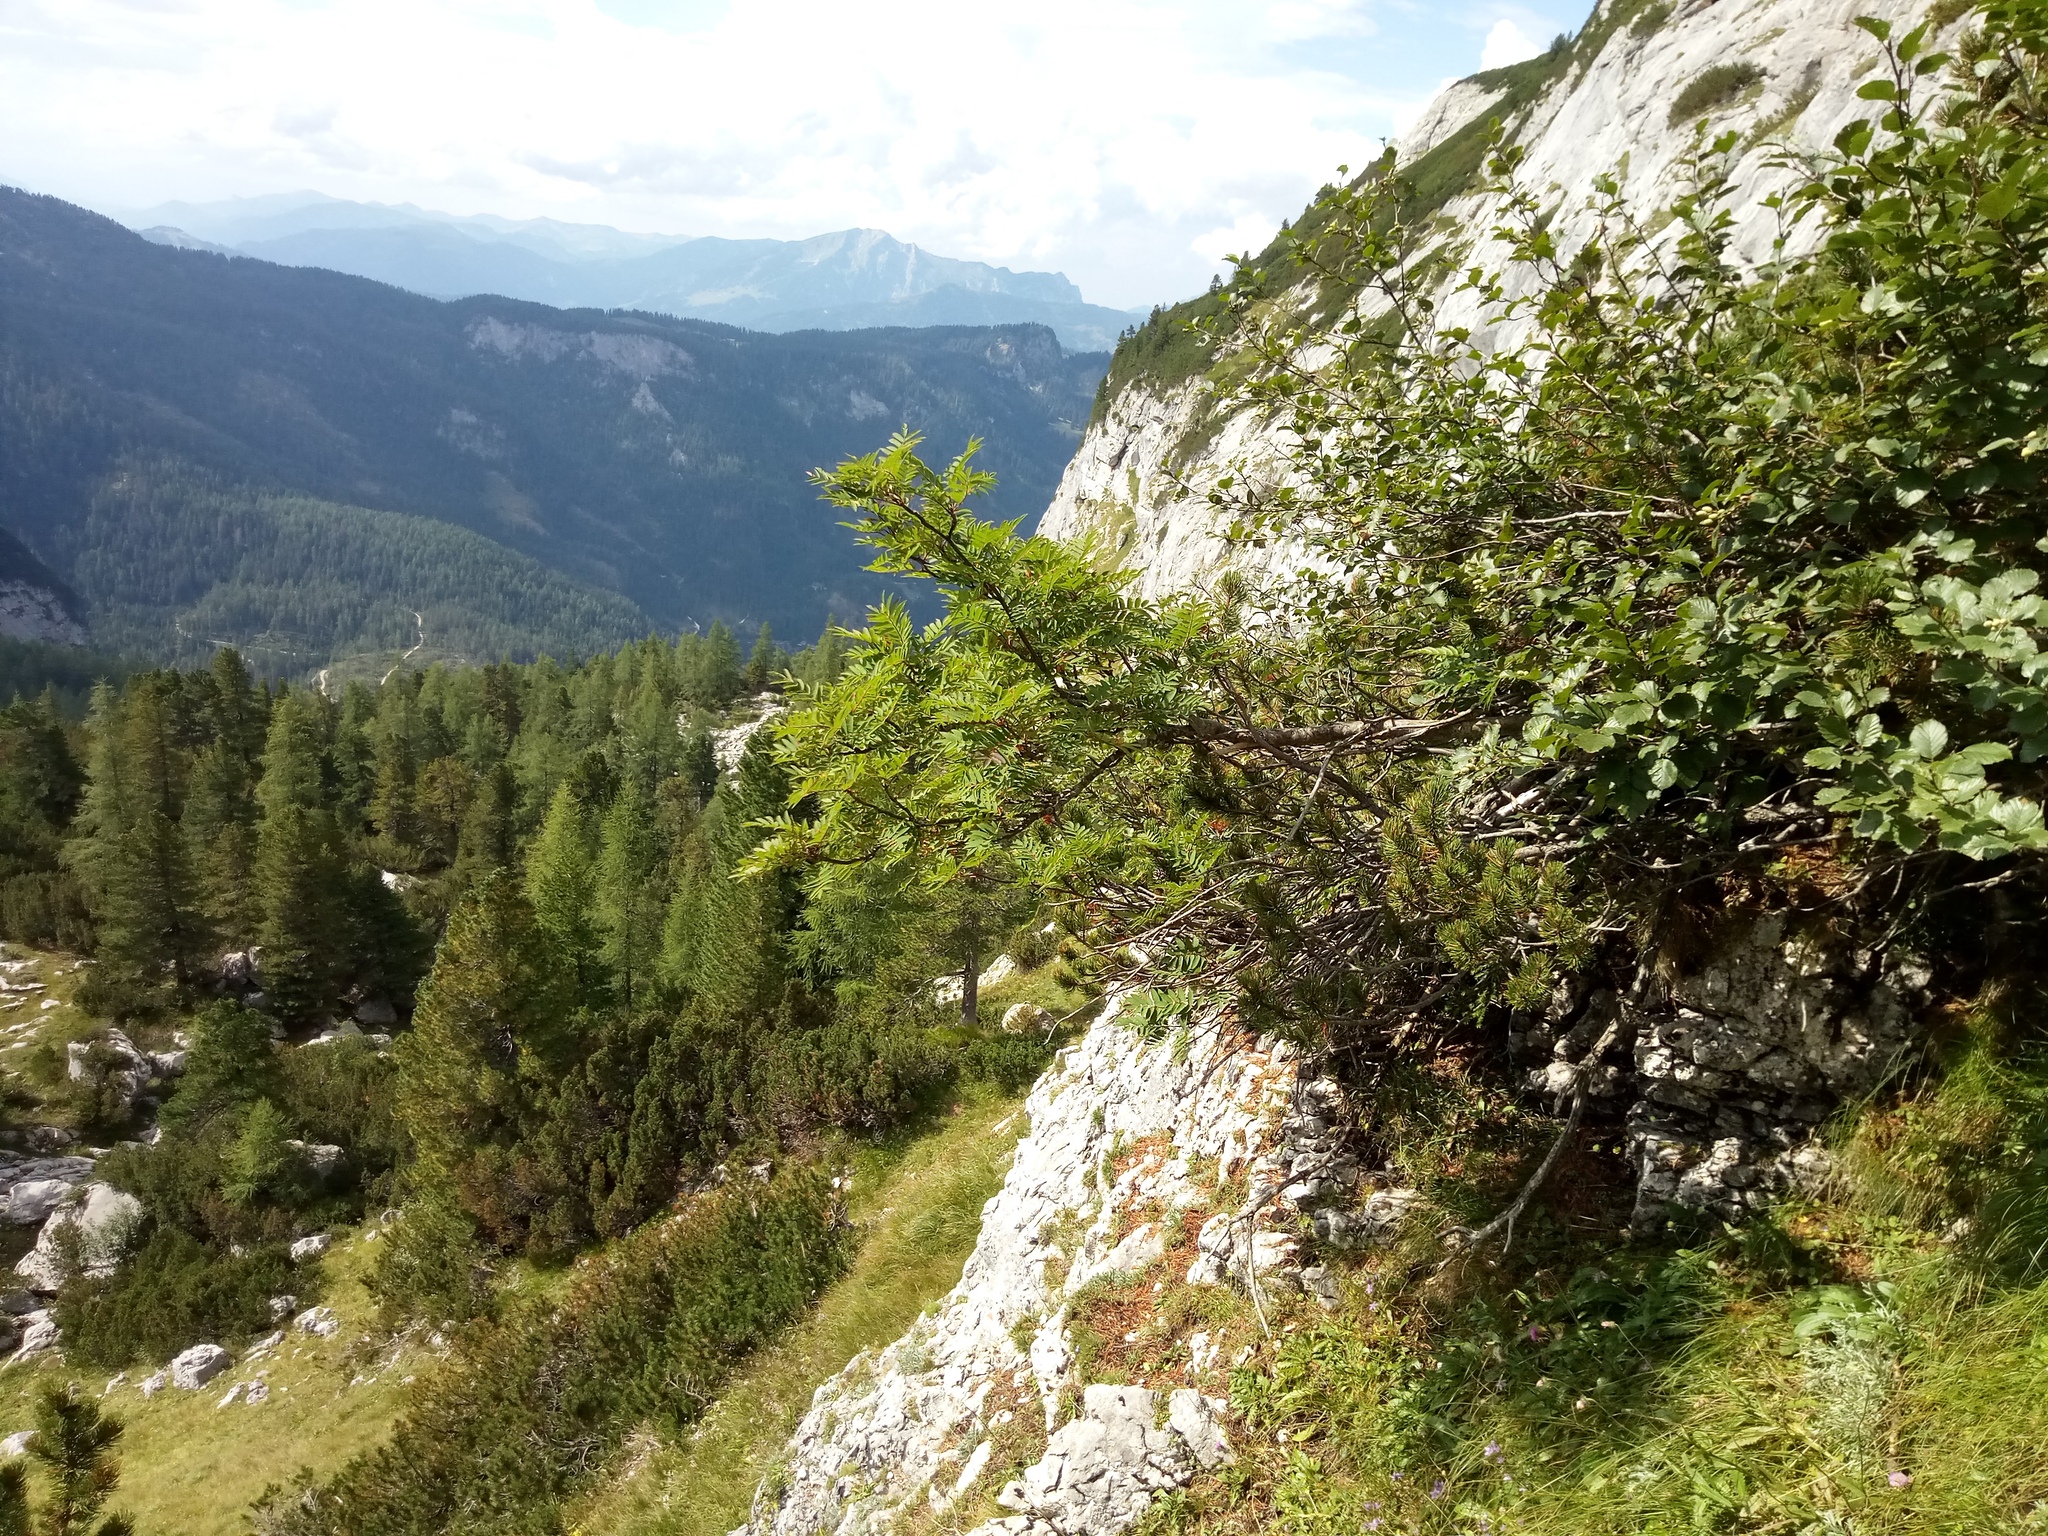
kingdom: Plantae
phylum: Tracheophyta
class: Magnoliopsida
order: Rosales
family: Rosaceae
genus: Sorbus
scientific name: Sorbus aucuparia
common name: Rowan
